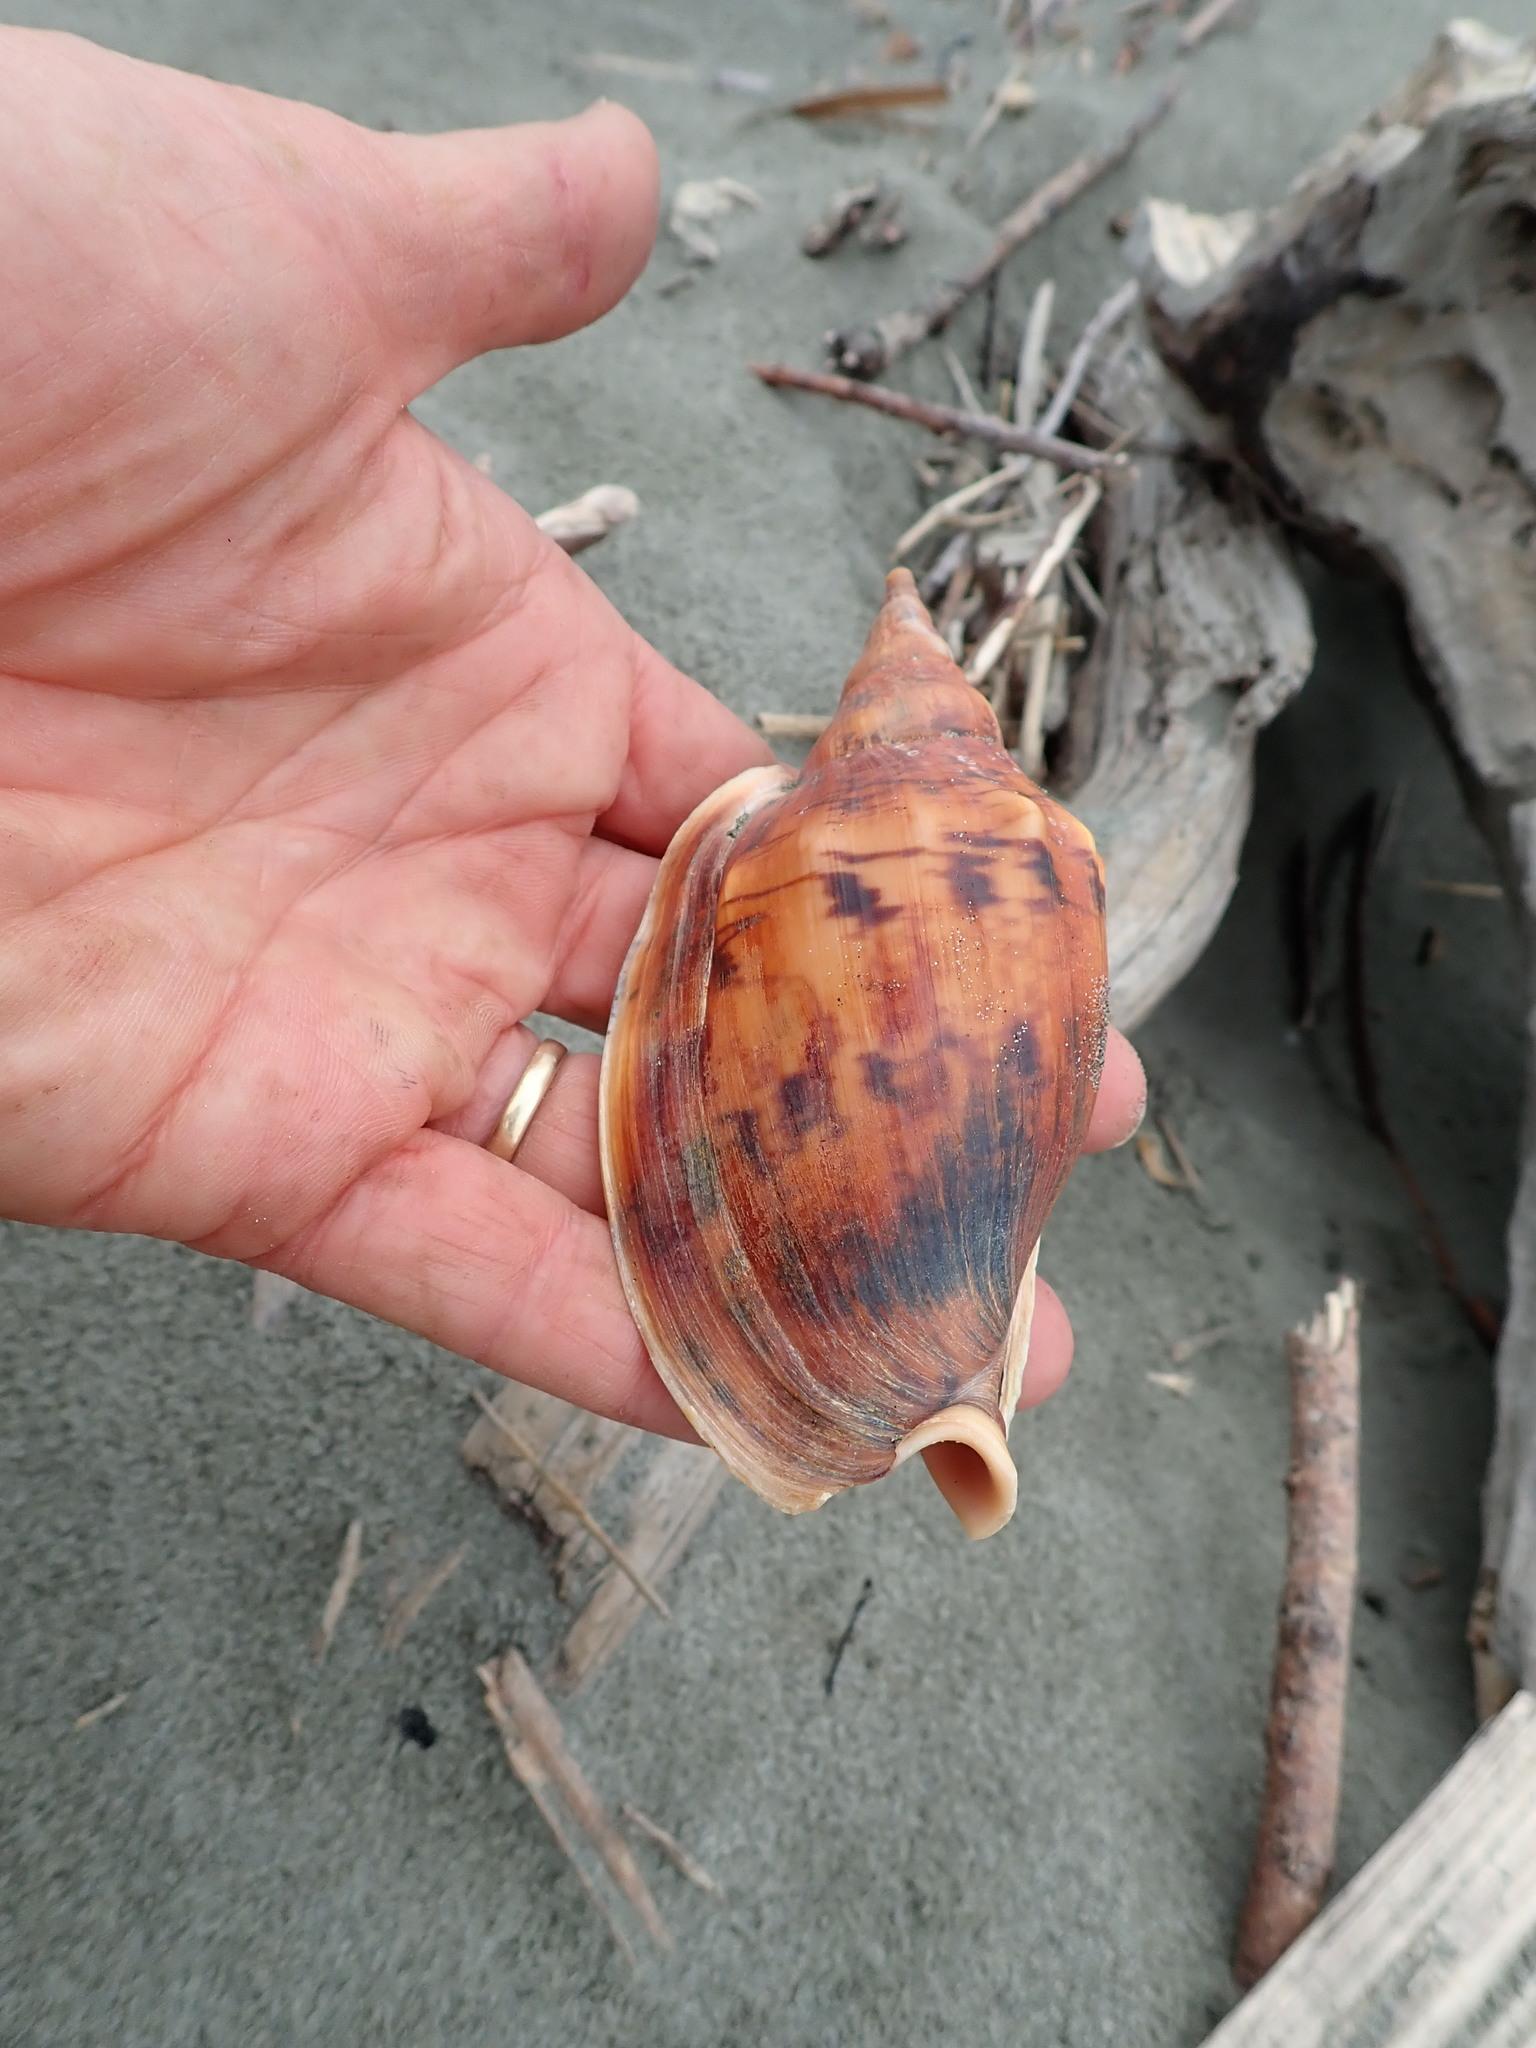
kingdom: Animalia
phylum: Mollusca
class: Gastropoda
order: Neogastropoda
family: Volutidae
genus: Alcithoe
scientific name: Alcithoe arabica
